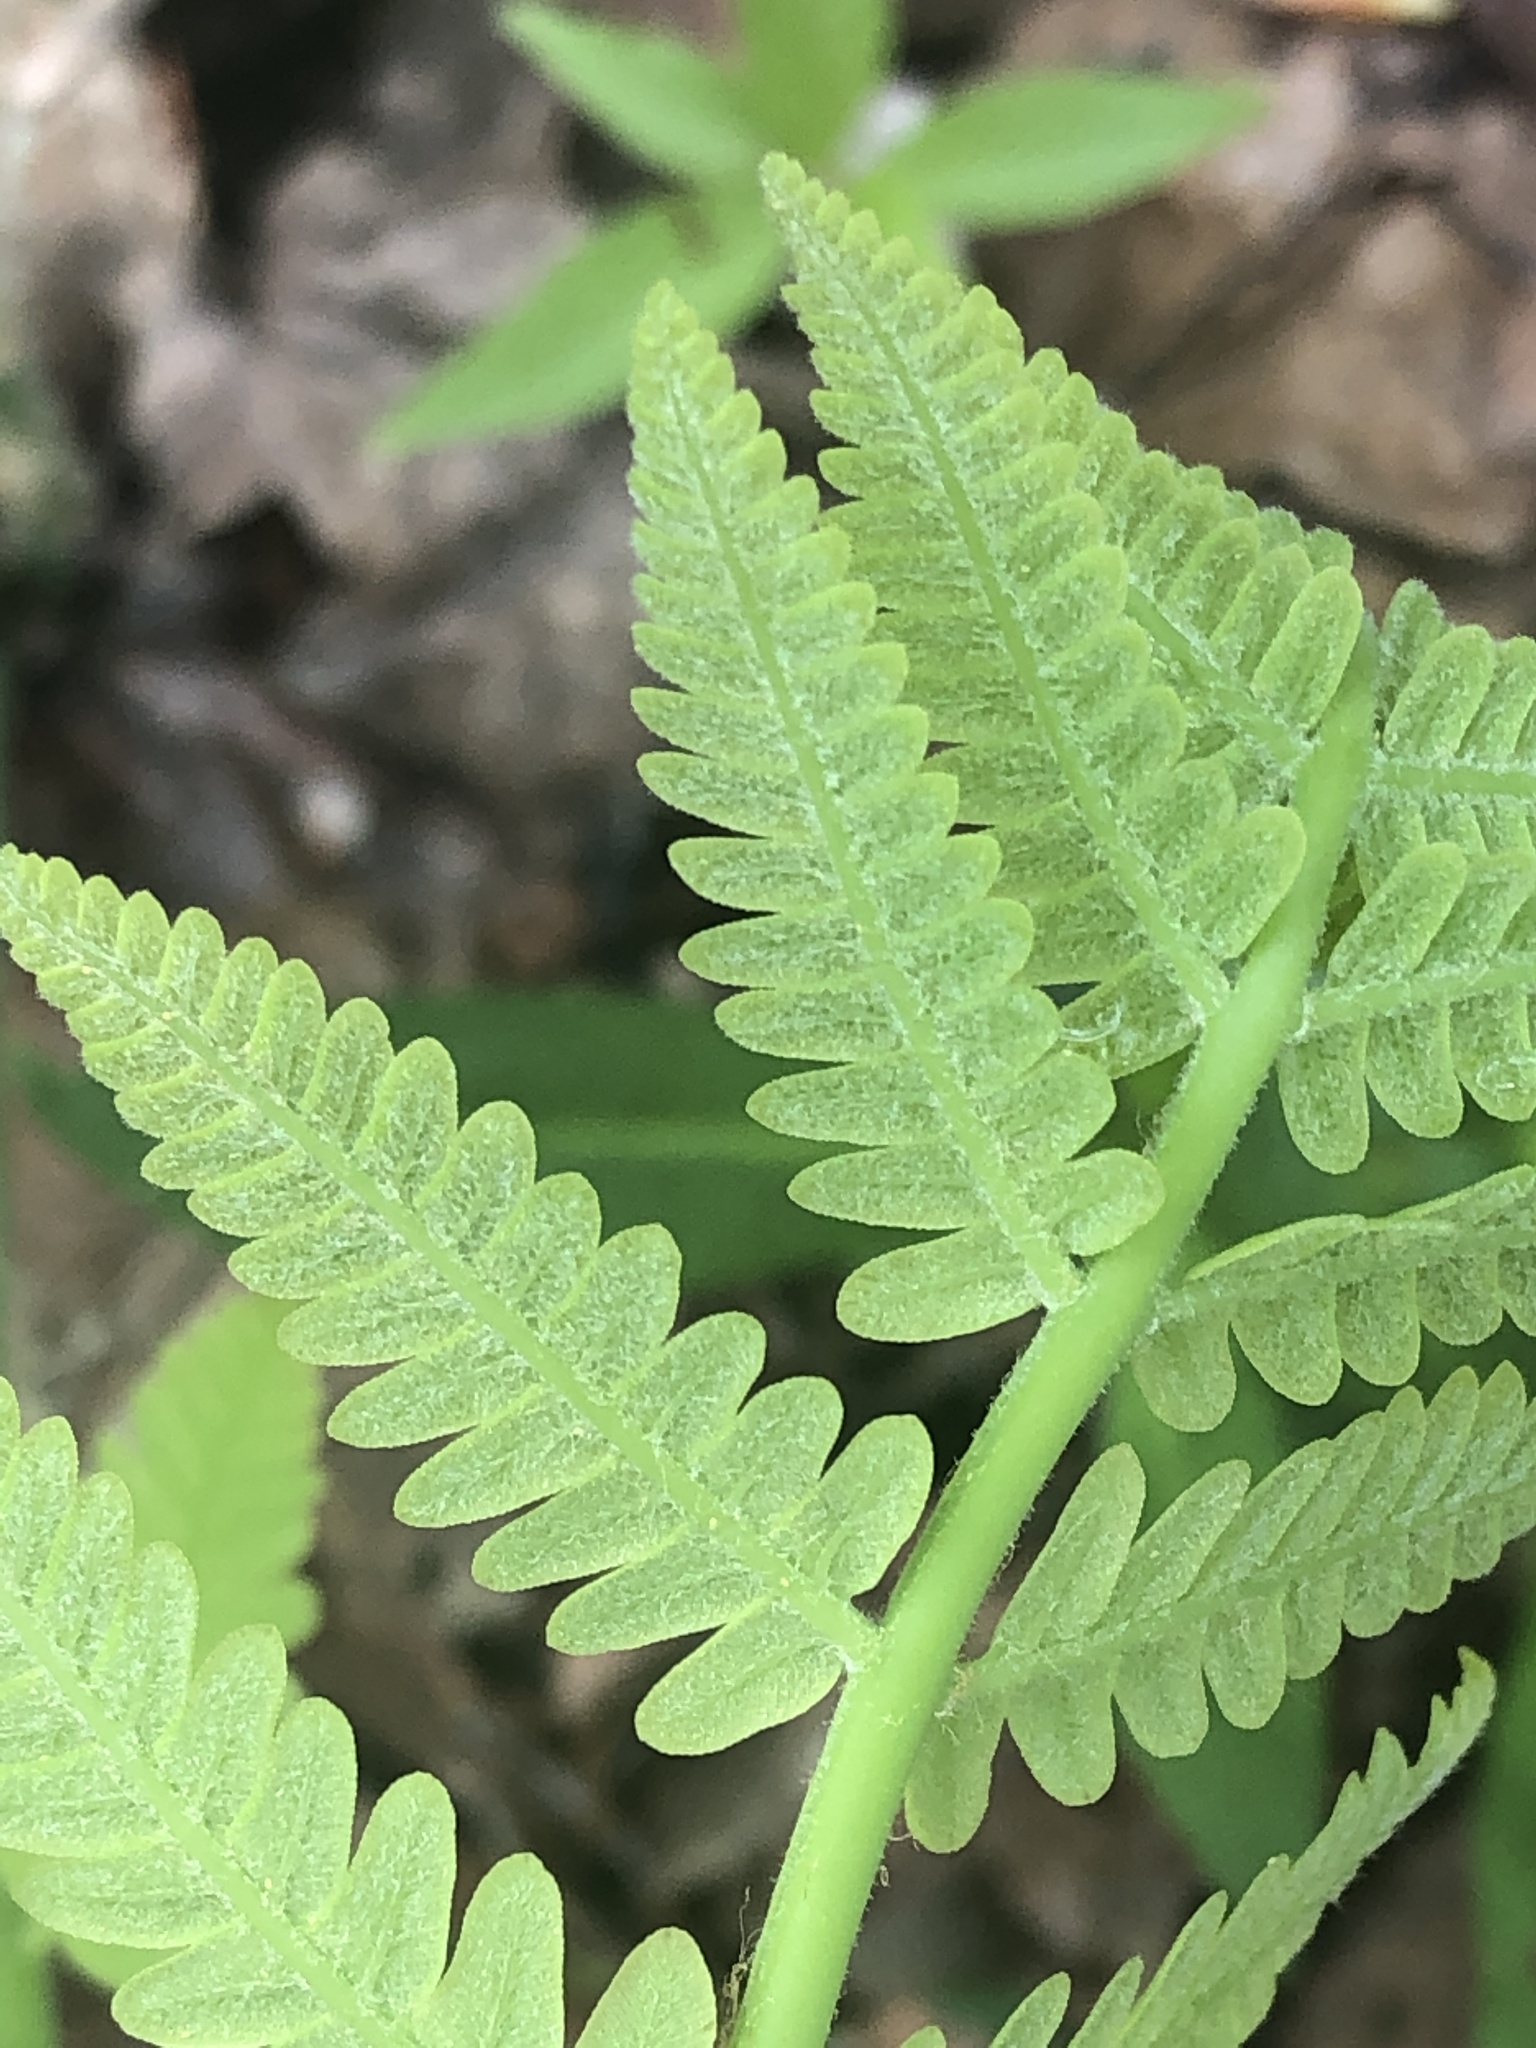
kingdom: Plantae
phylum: Tracheophyta
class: Polypodiopsida
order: Osmundales
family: Osmundaceae
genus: Claytosmunda
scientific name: Claytosmunda claytoniana
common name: Clayton's fern
